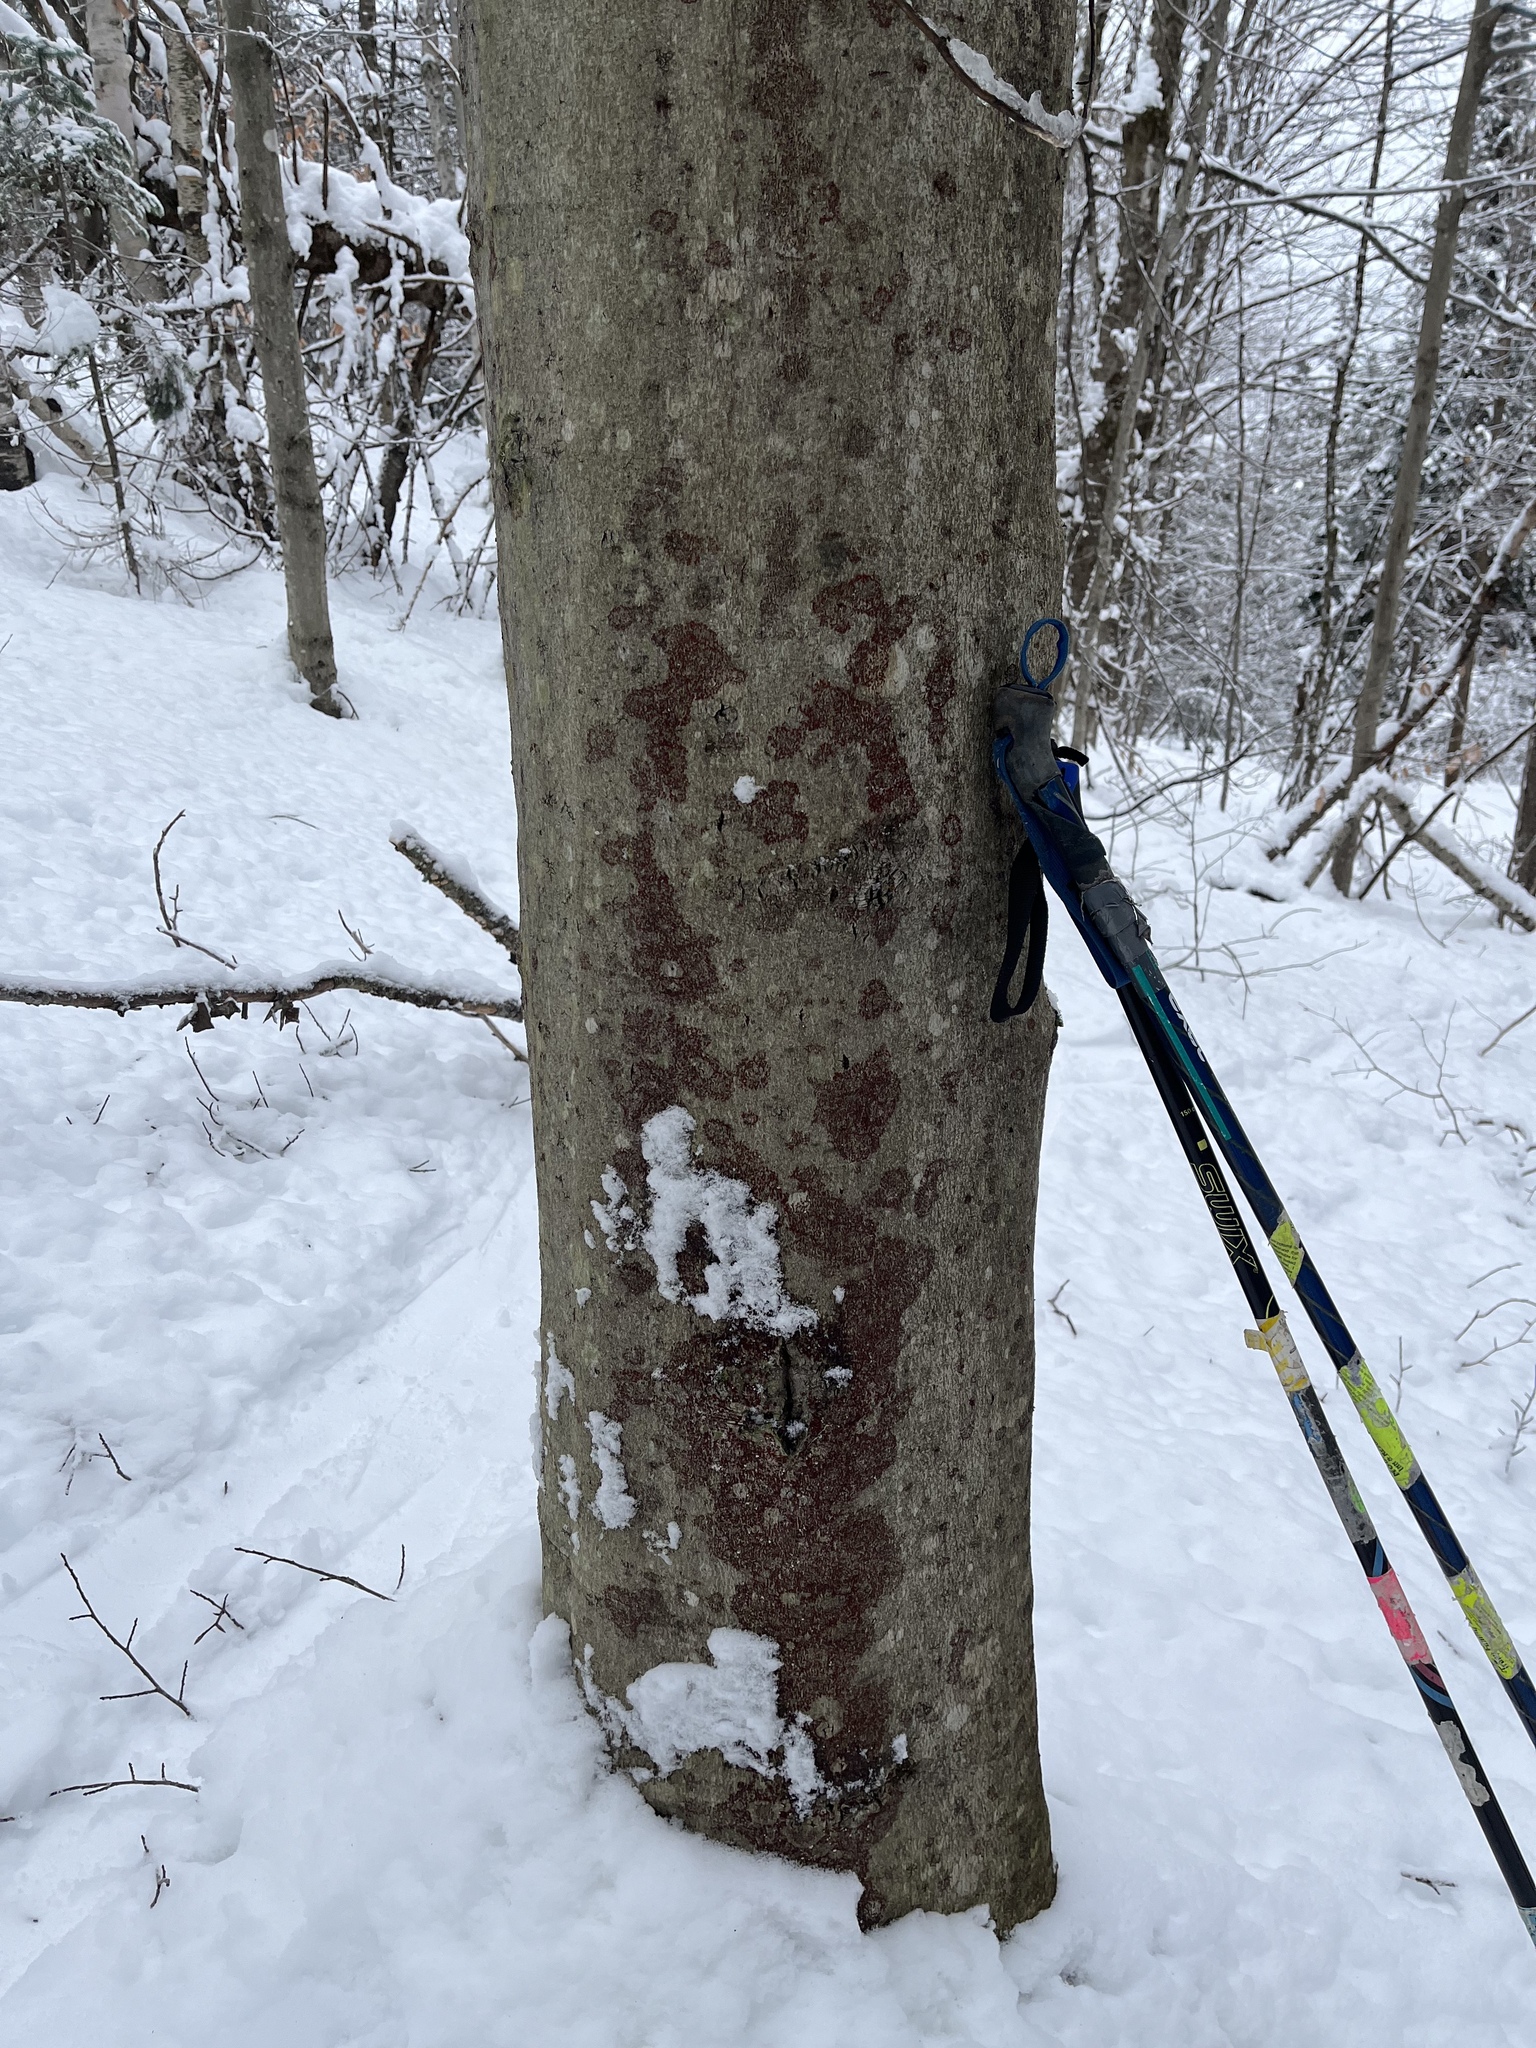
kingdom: Fungi
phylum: Ascomycota
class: Sordariomycetes
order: Hypocreales
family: Nectriaceae
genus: Neonectria
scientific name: Neonectria faginata
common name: Beech bark canker
